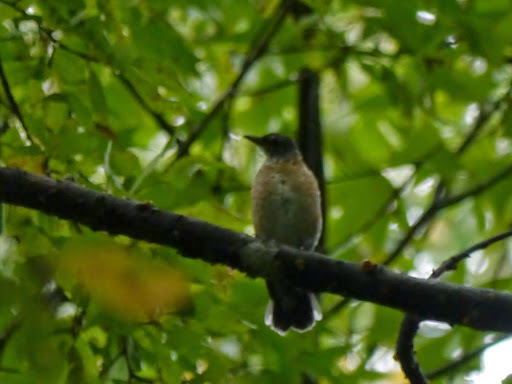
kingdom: Animalia
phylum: Chordata
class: Aves
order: Passeriformes
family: Turdidae
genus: Turdus
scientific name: Turdus migratorius
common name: American robin
